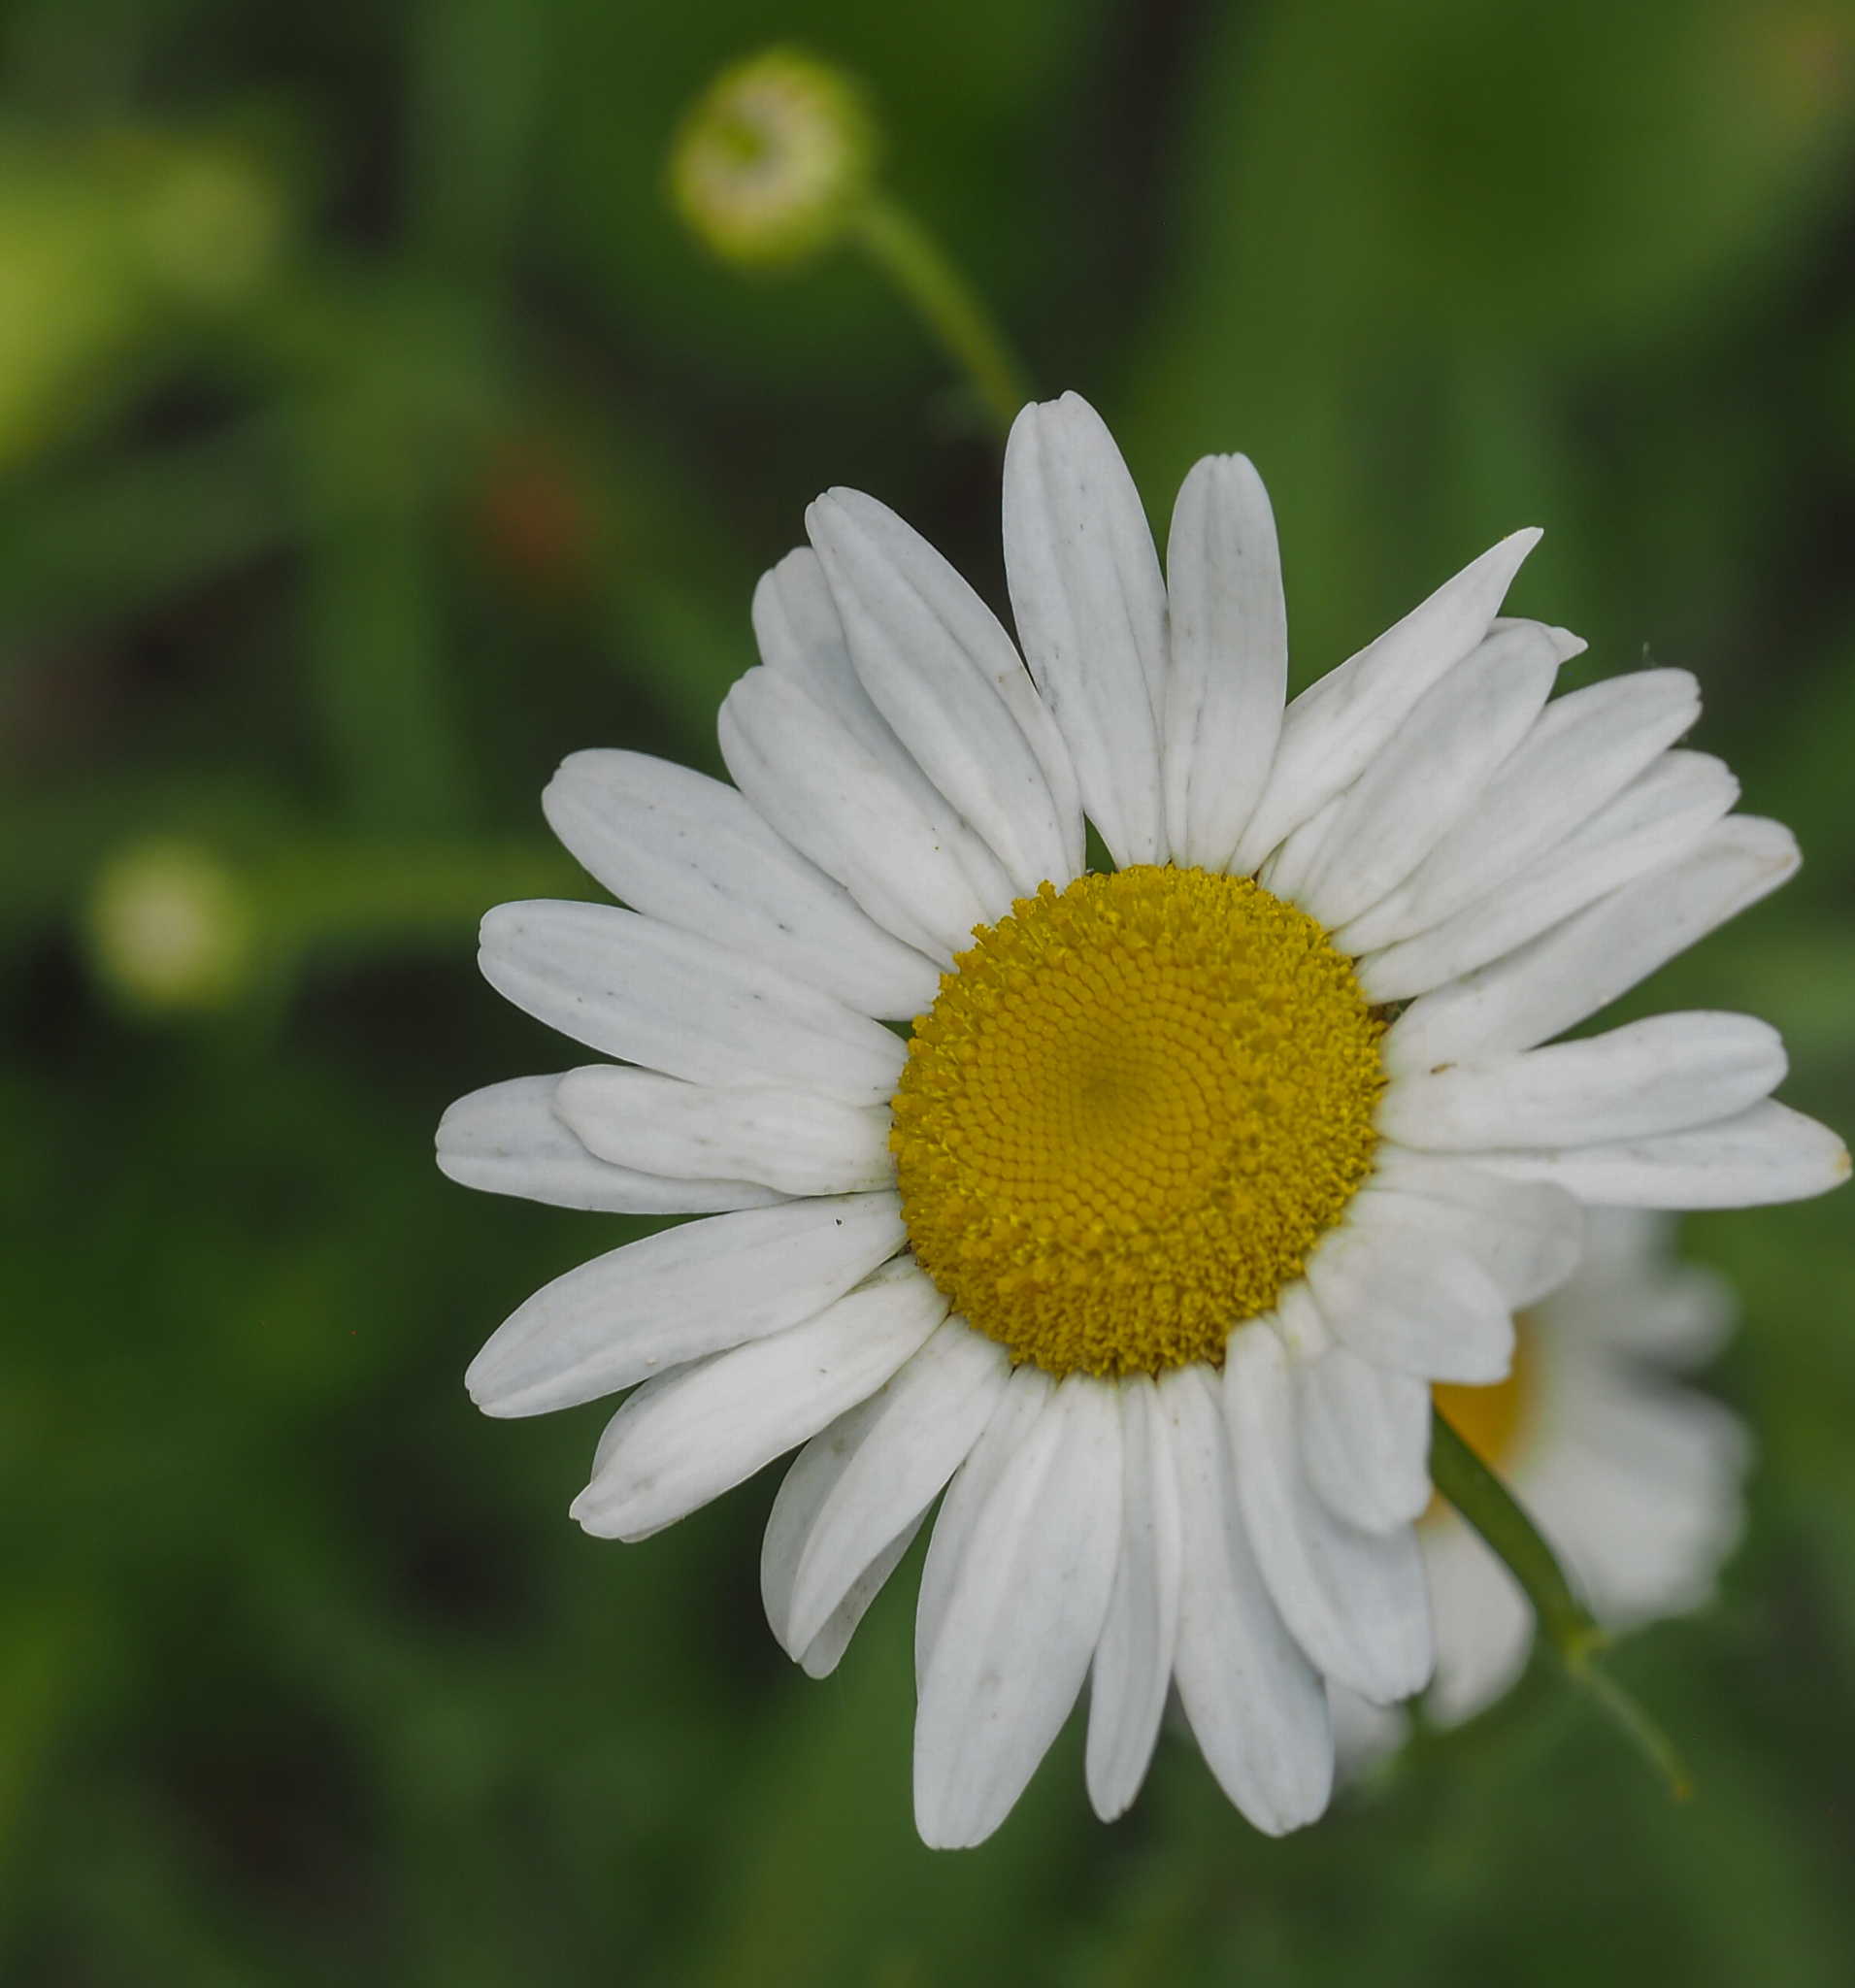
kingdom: Plantae
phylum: Tracheophyta
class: Magnoliopsida
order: Asterales
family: Asteraceae
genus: Leucanthemum
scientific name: Leucanthemum vulgare
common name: Oxeye daisy
